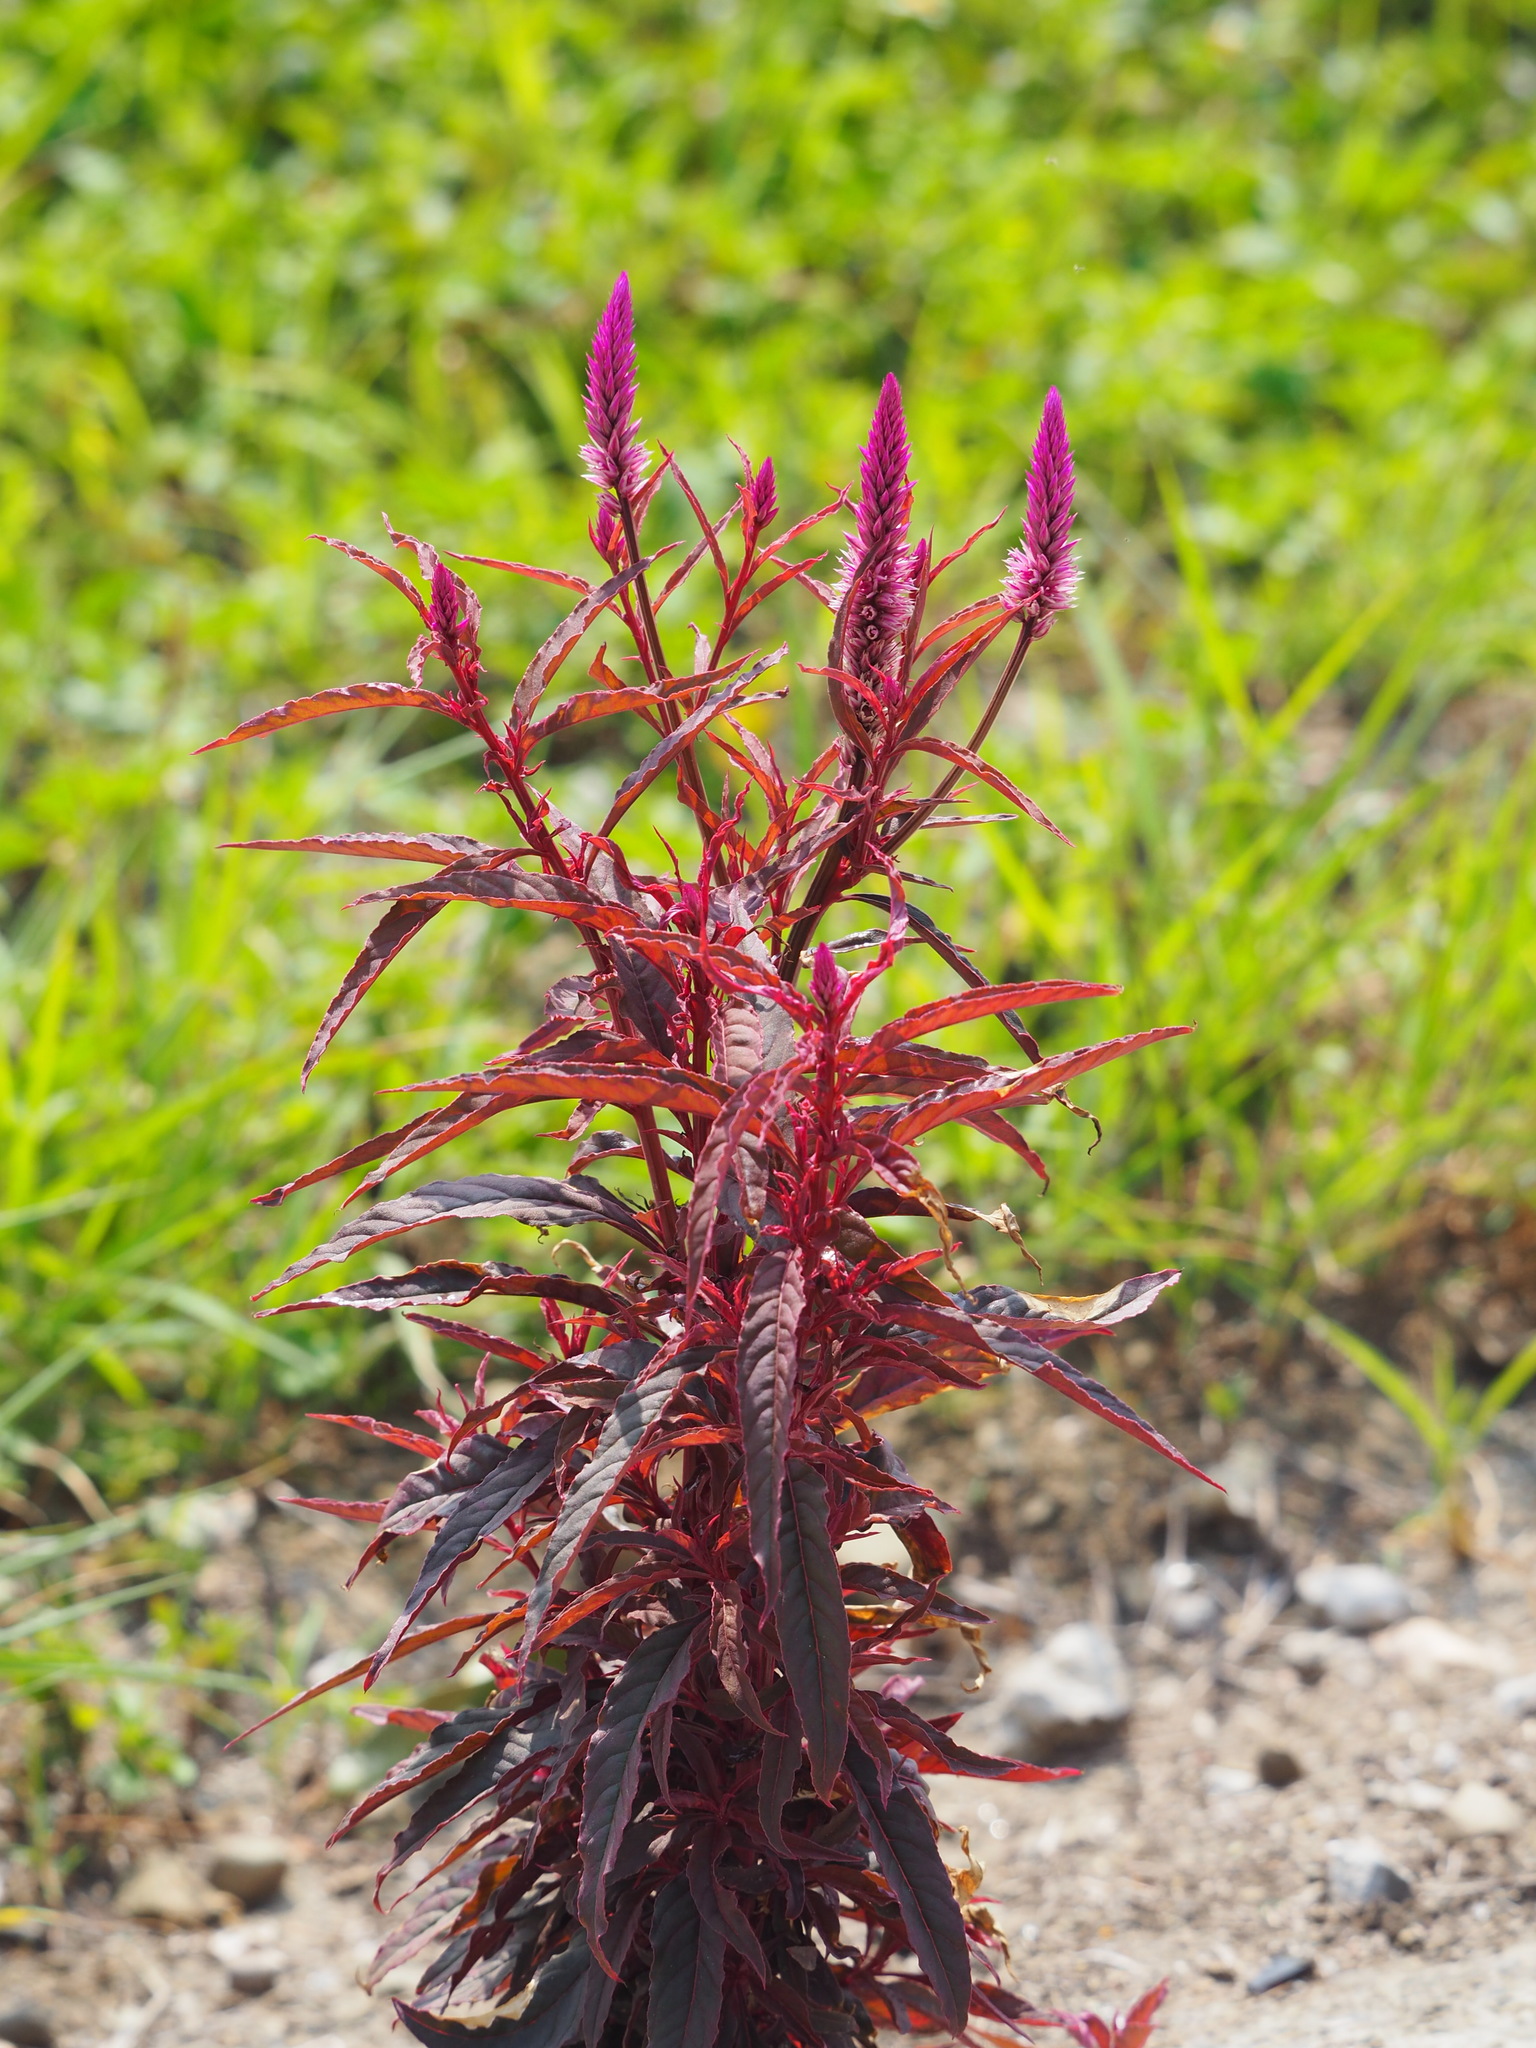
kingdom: Plantae
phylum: Tracheophyta
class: Magnoliopsida
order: Caryophyllales
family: Amaranthaceae
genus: Celosia
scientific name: Celosia argentea
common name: Feather cockscomb
